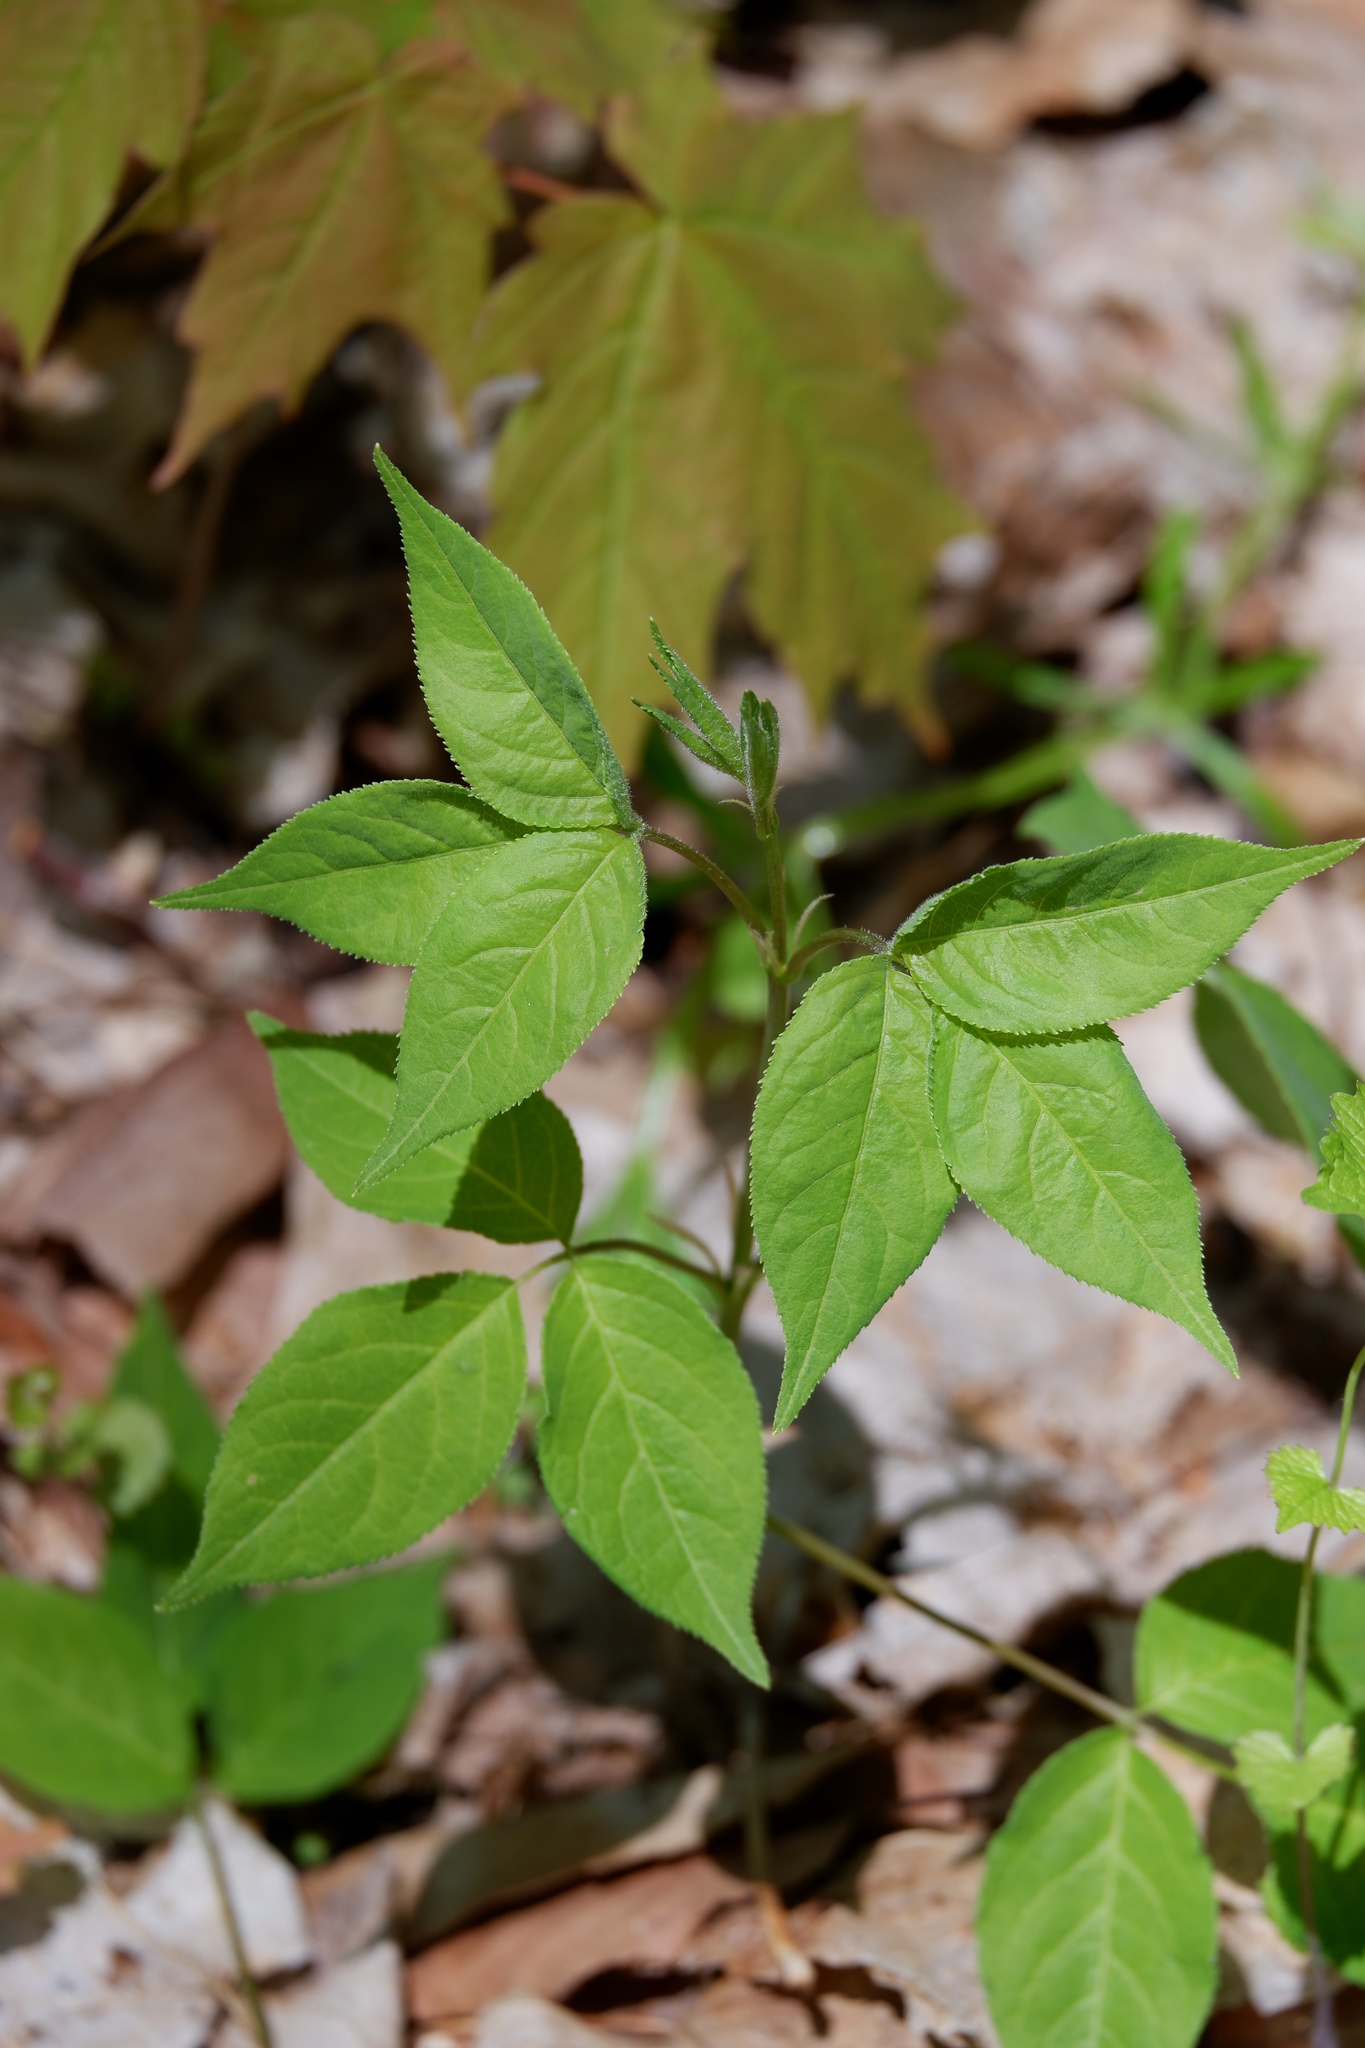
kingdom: Plantae
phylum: Tracheophyta
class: Magnoliopsida
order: Crossosomatales
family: Staphyleaceae
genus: Staphylea
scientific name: Staphylea trifolia
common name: American bladdernut
